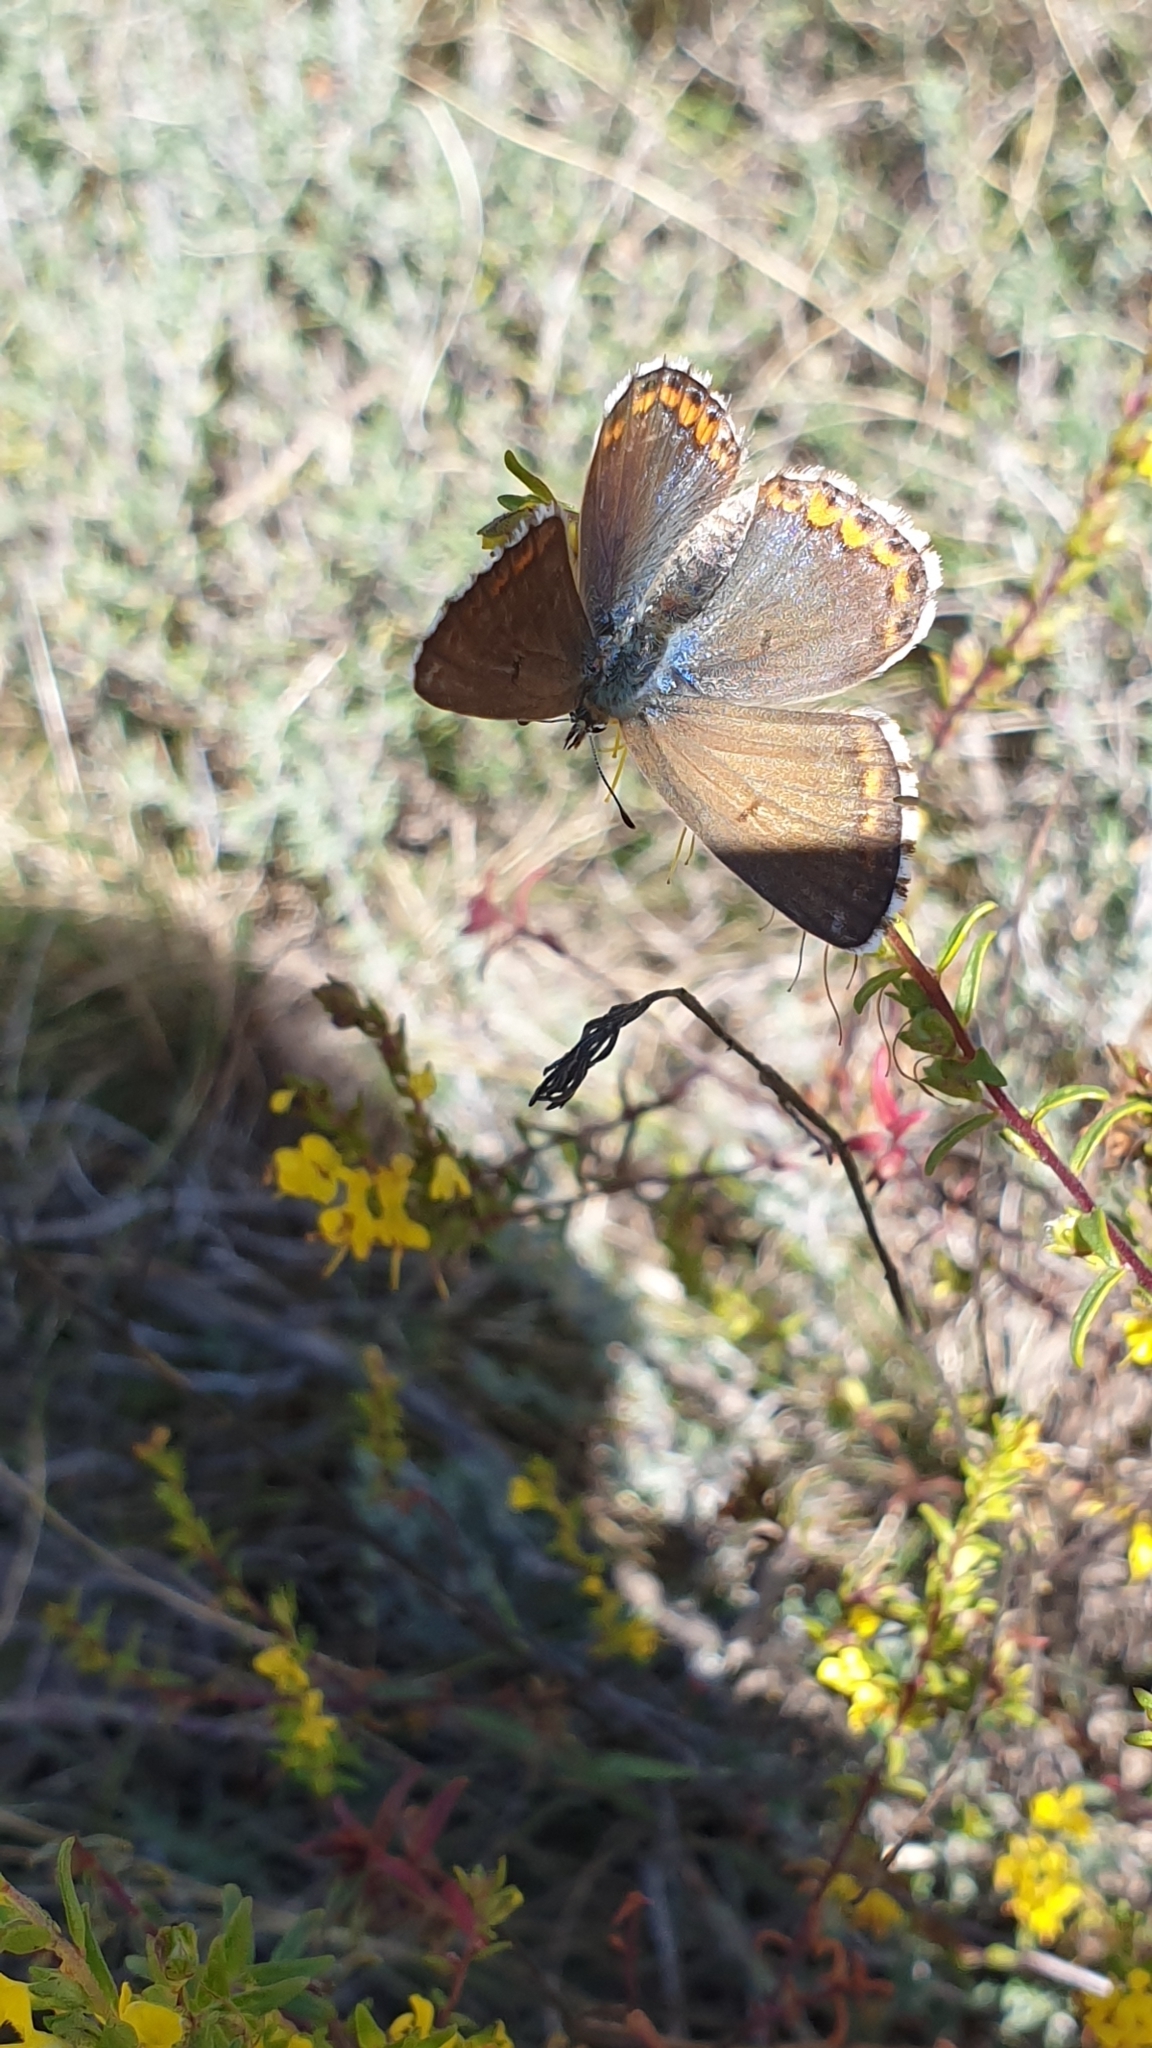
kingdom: Animalia
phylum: Arthropoda
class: Insecta
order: Lepidoptera
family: Lycaenidae
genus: Lysandra
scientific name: Lysandra bellargus
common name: Adonis blue
